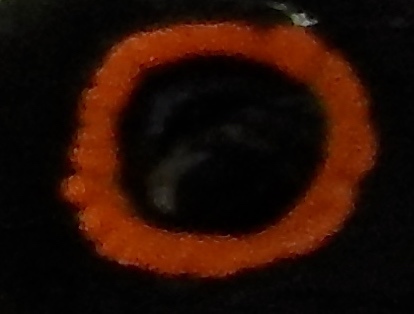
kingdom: Animalia
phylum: Chordata
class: Aves
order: Trogoniformes
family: Trogonidae
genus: Trogon
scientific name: Trogon elegans
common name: Elegant trogon
